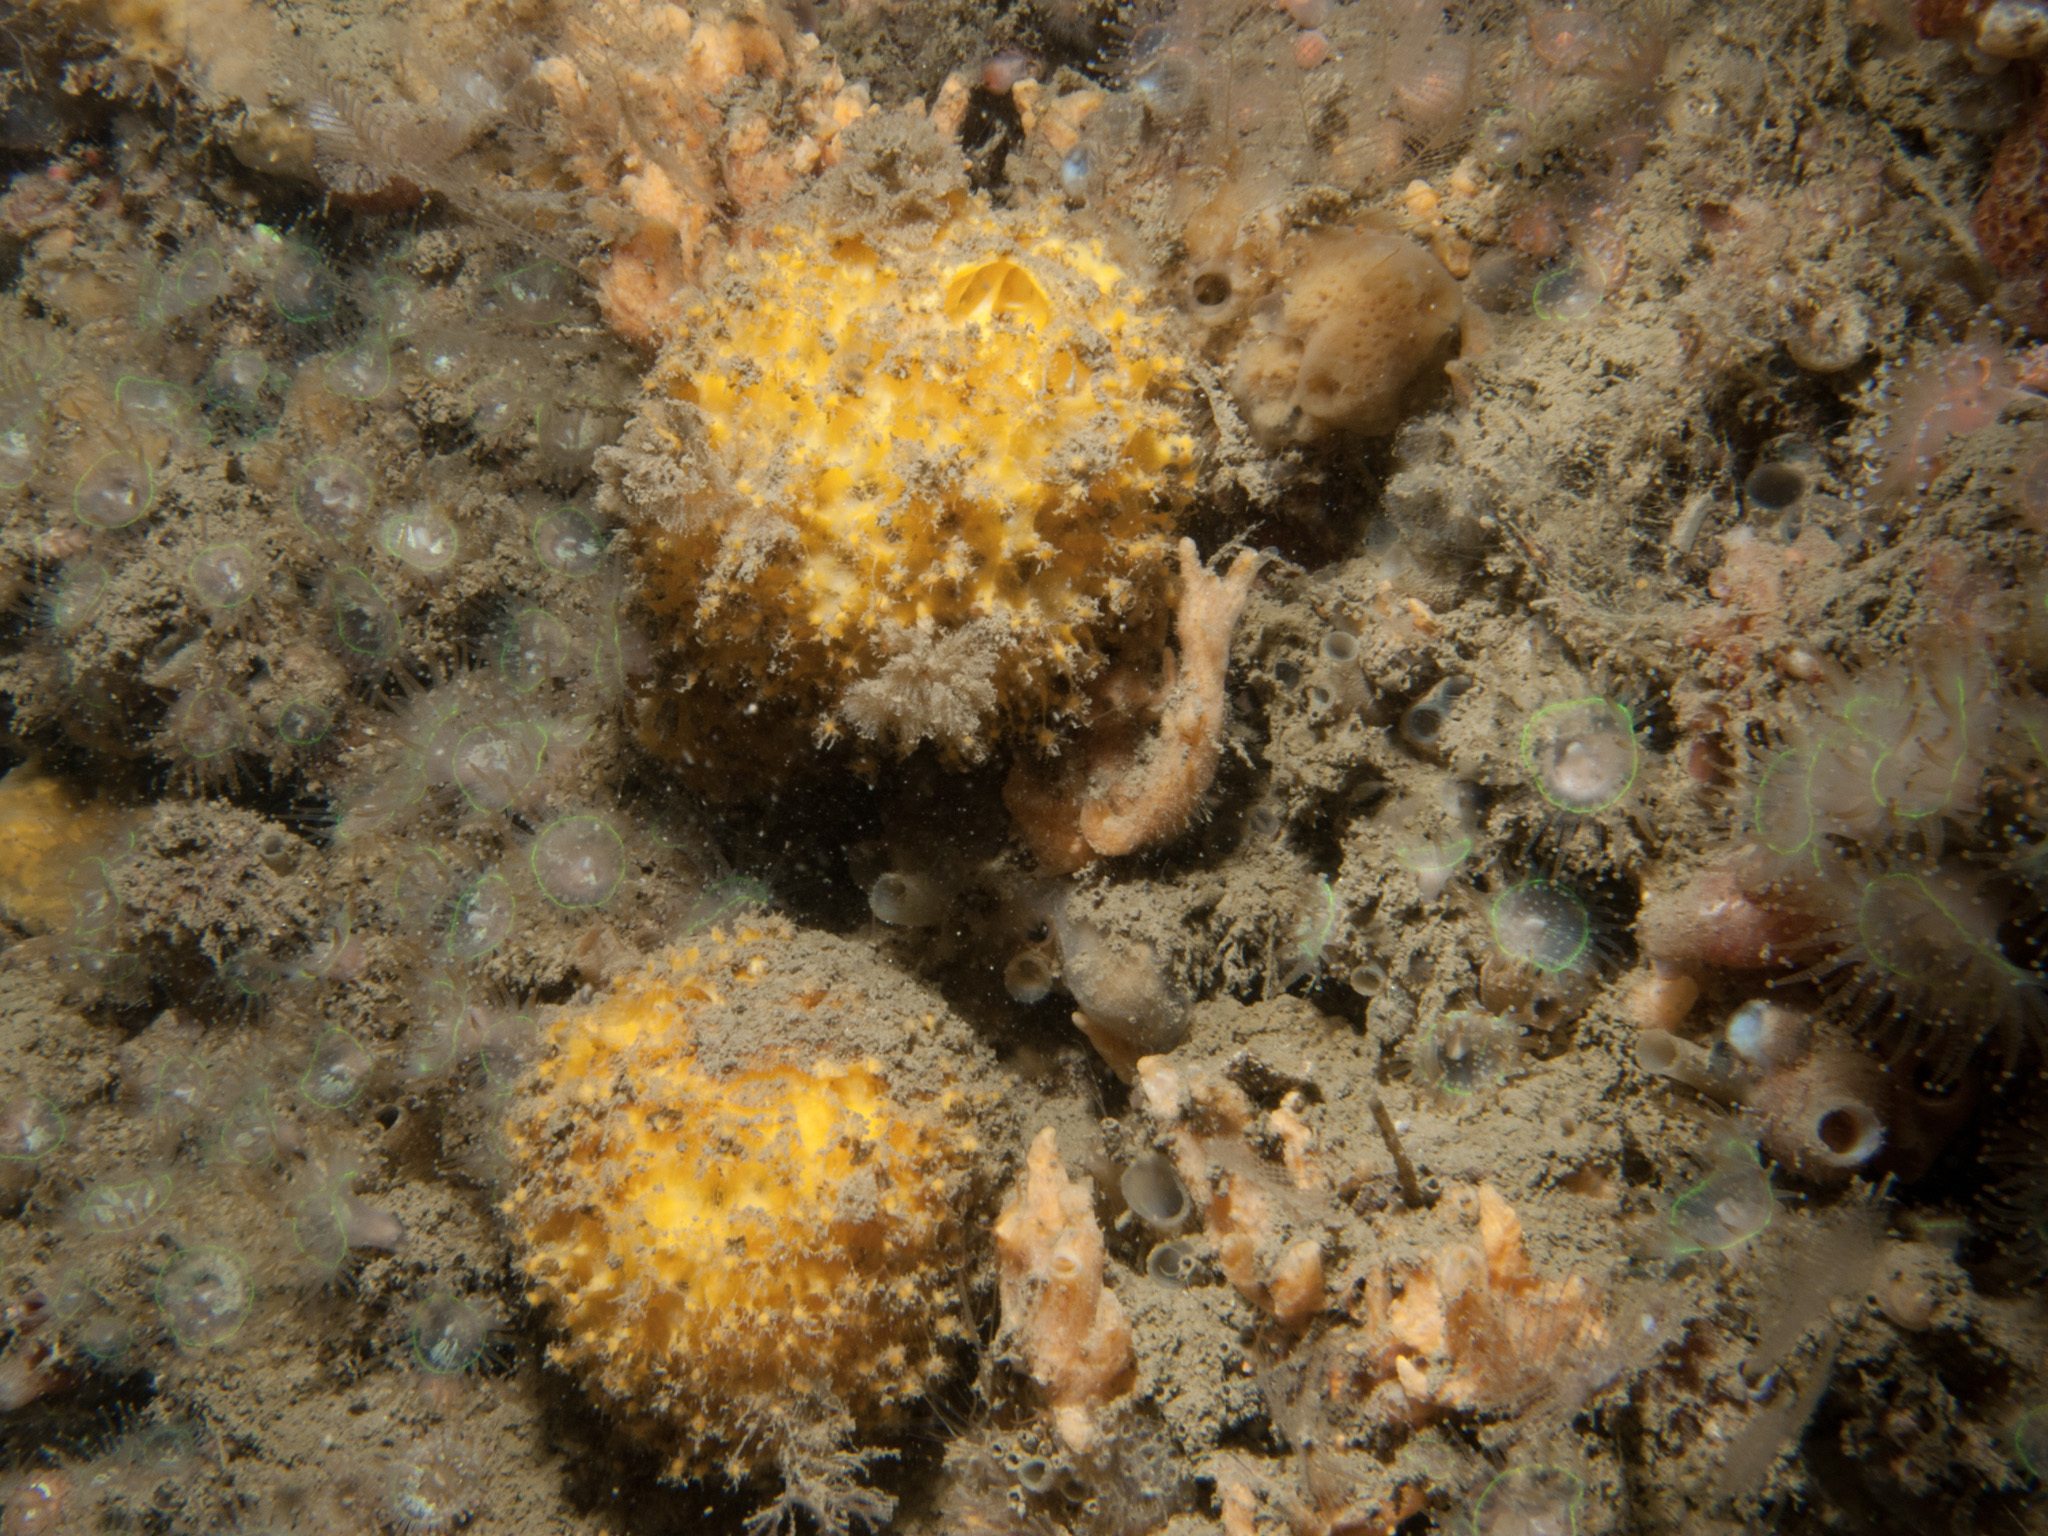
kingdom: Animalia
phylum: Porifera
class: Demospongiae
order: Tethyida
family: Tethyidae
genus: Tethya
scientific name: Tethya citrina
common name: Sea lemon
